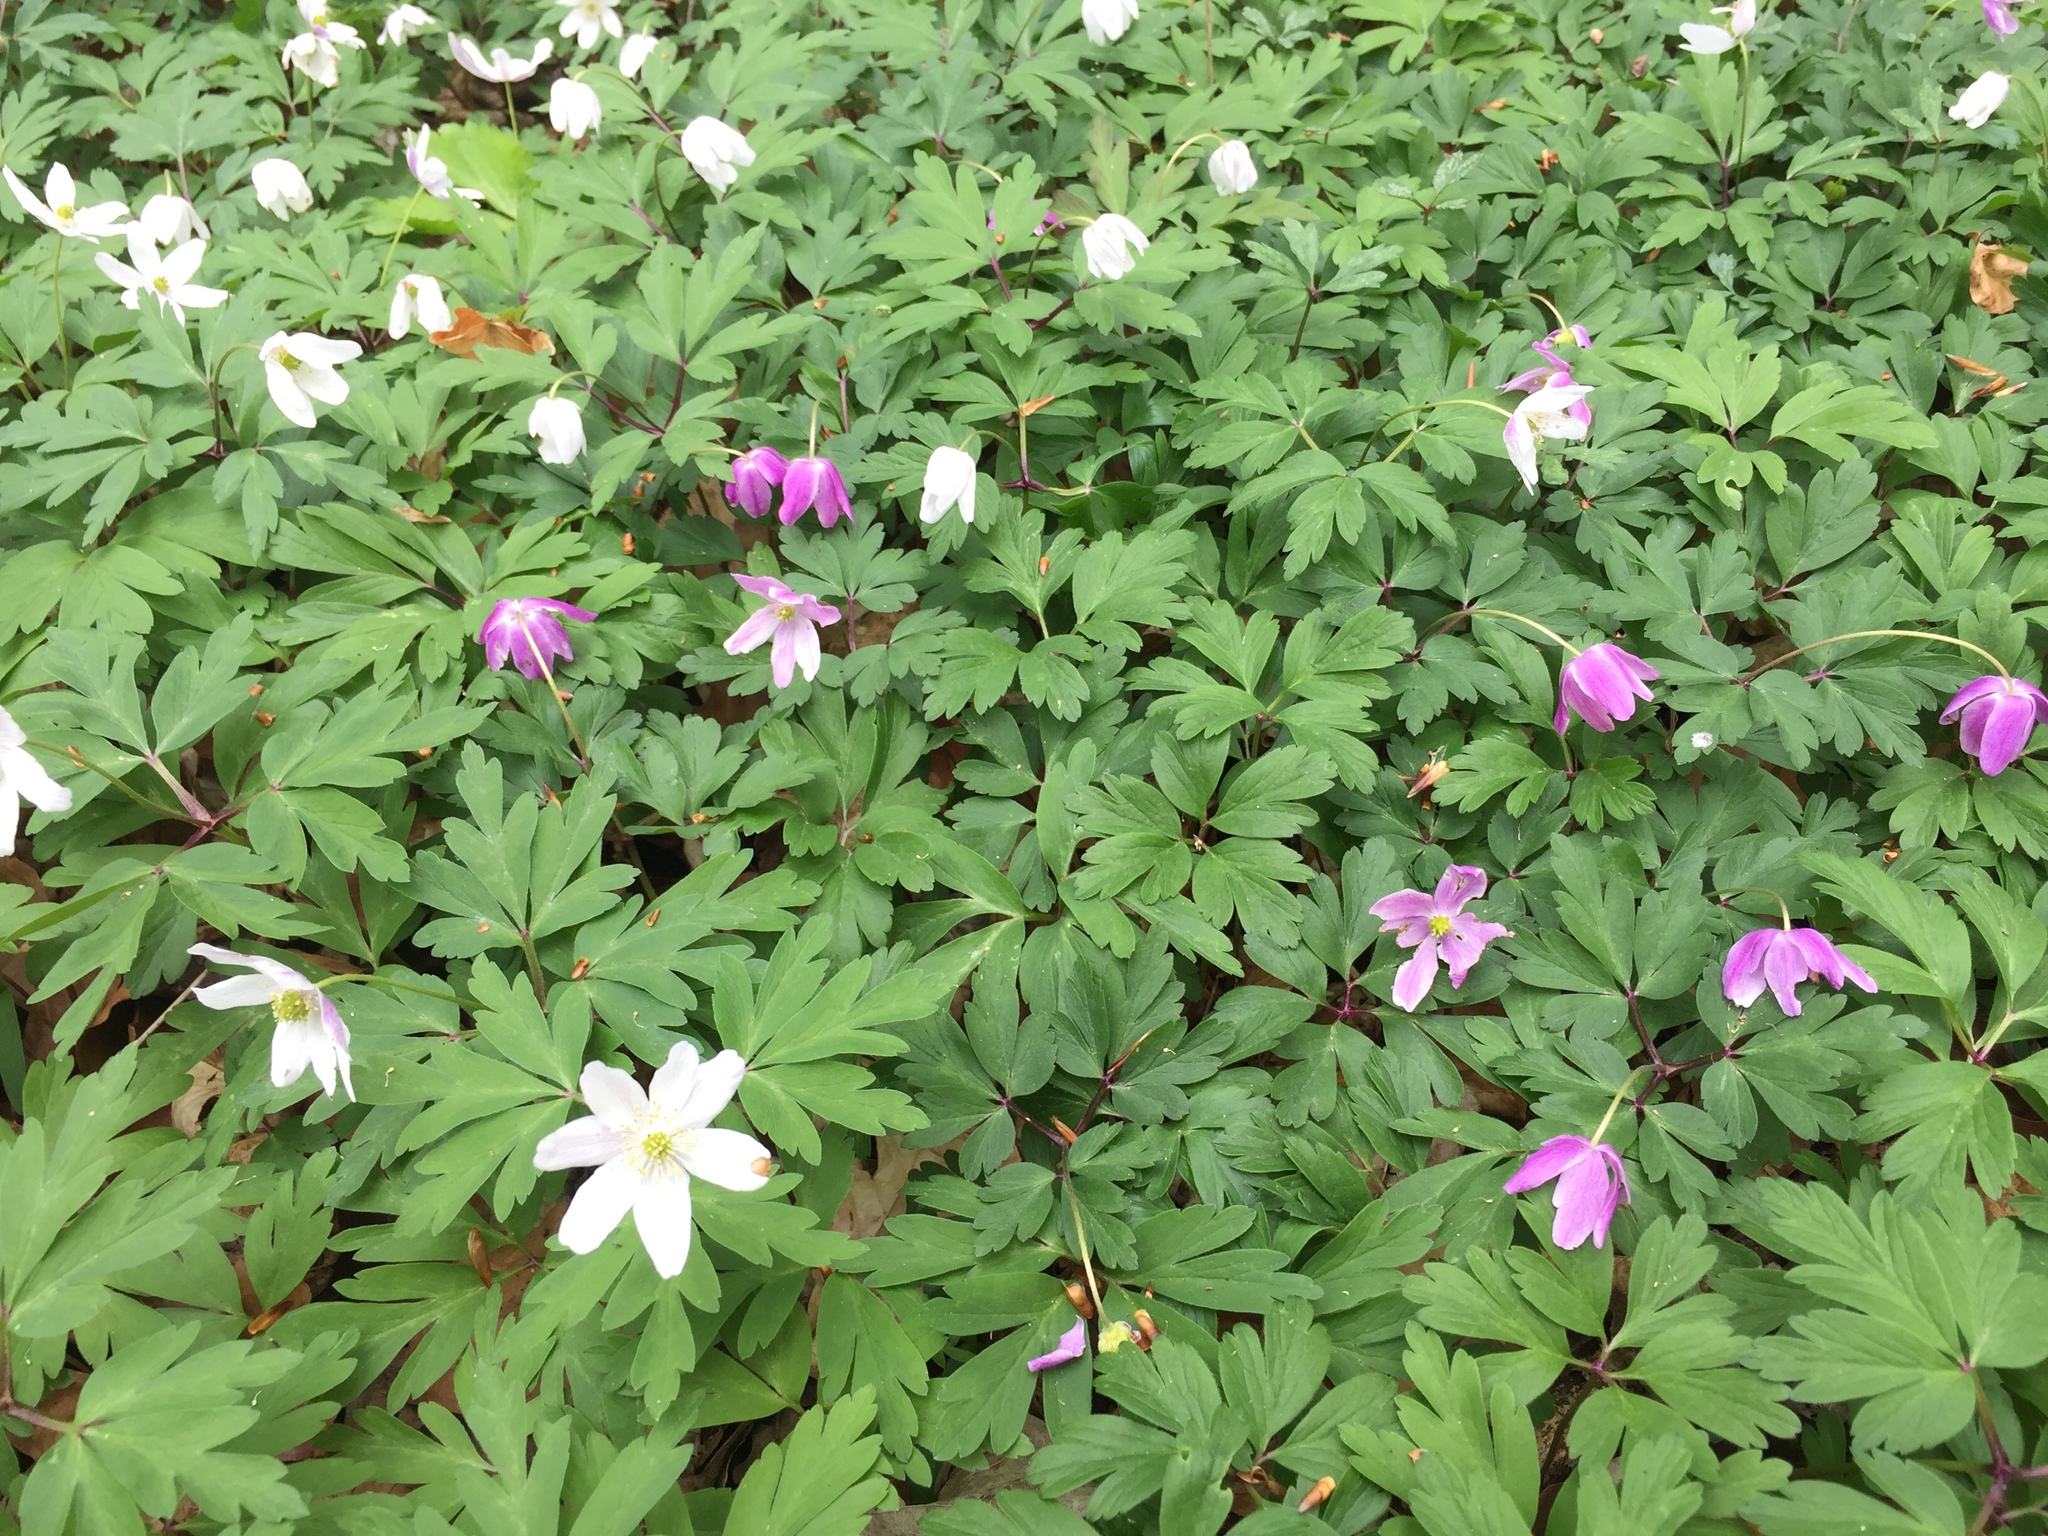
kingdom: Plantae
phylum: Tracheophyta
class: Magnoliopsida
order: Ranunculales
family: Ranunculaceae
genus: Anemone
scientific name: Anemone nemorosa
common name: Wood anemone
